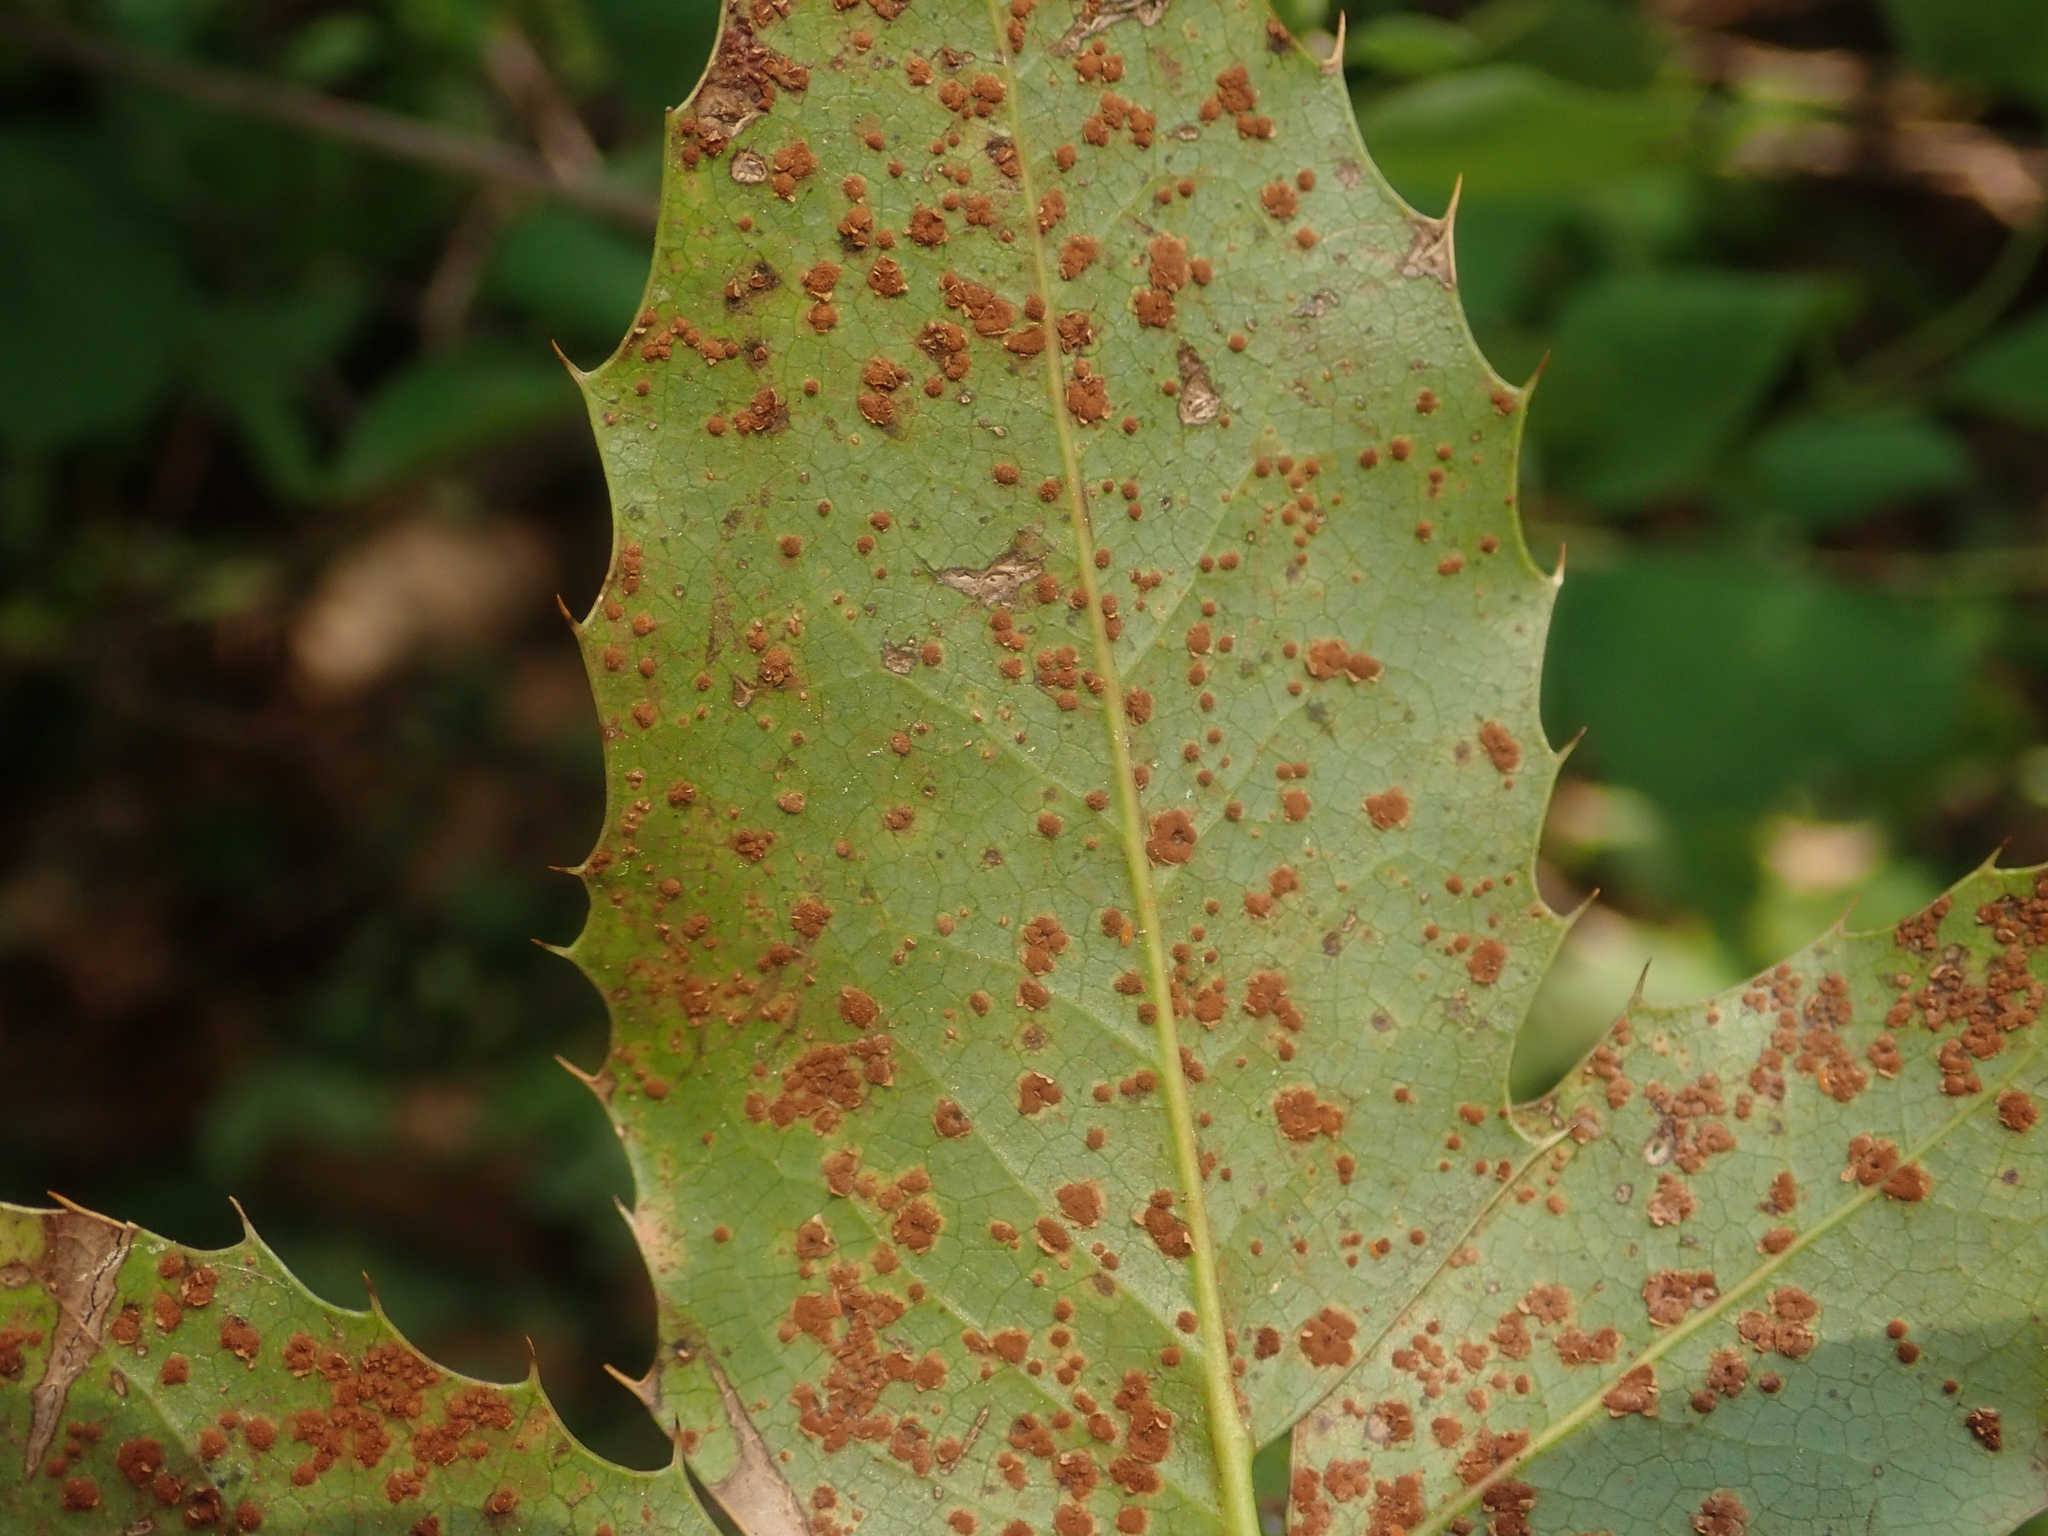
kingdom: Fungi
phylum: Basidiomycota
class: Pucciniomycetes
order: Pucciniales
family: Pucciniaceae
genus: Cumminsiella
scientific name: Cumminsiella mirabilissima
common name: Mahonia rust
